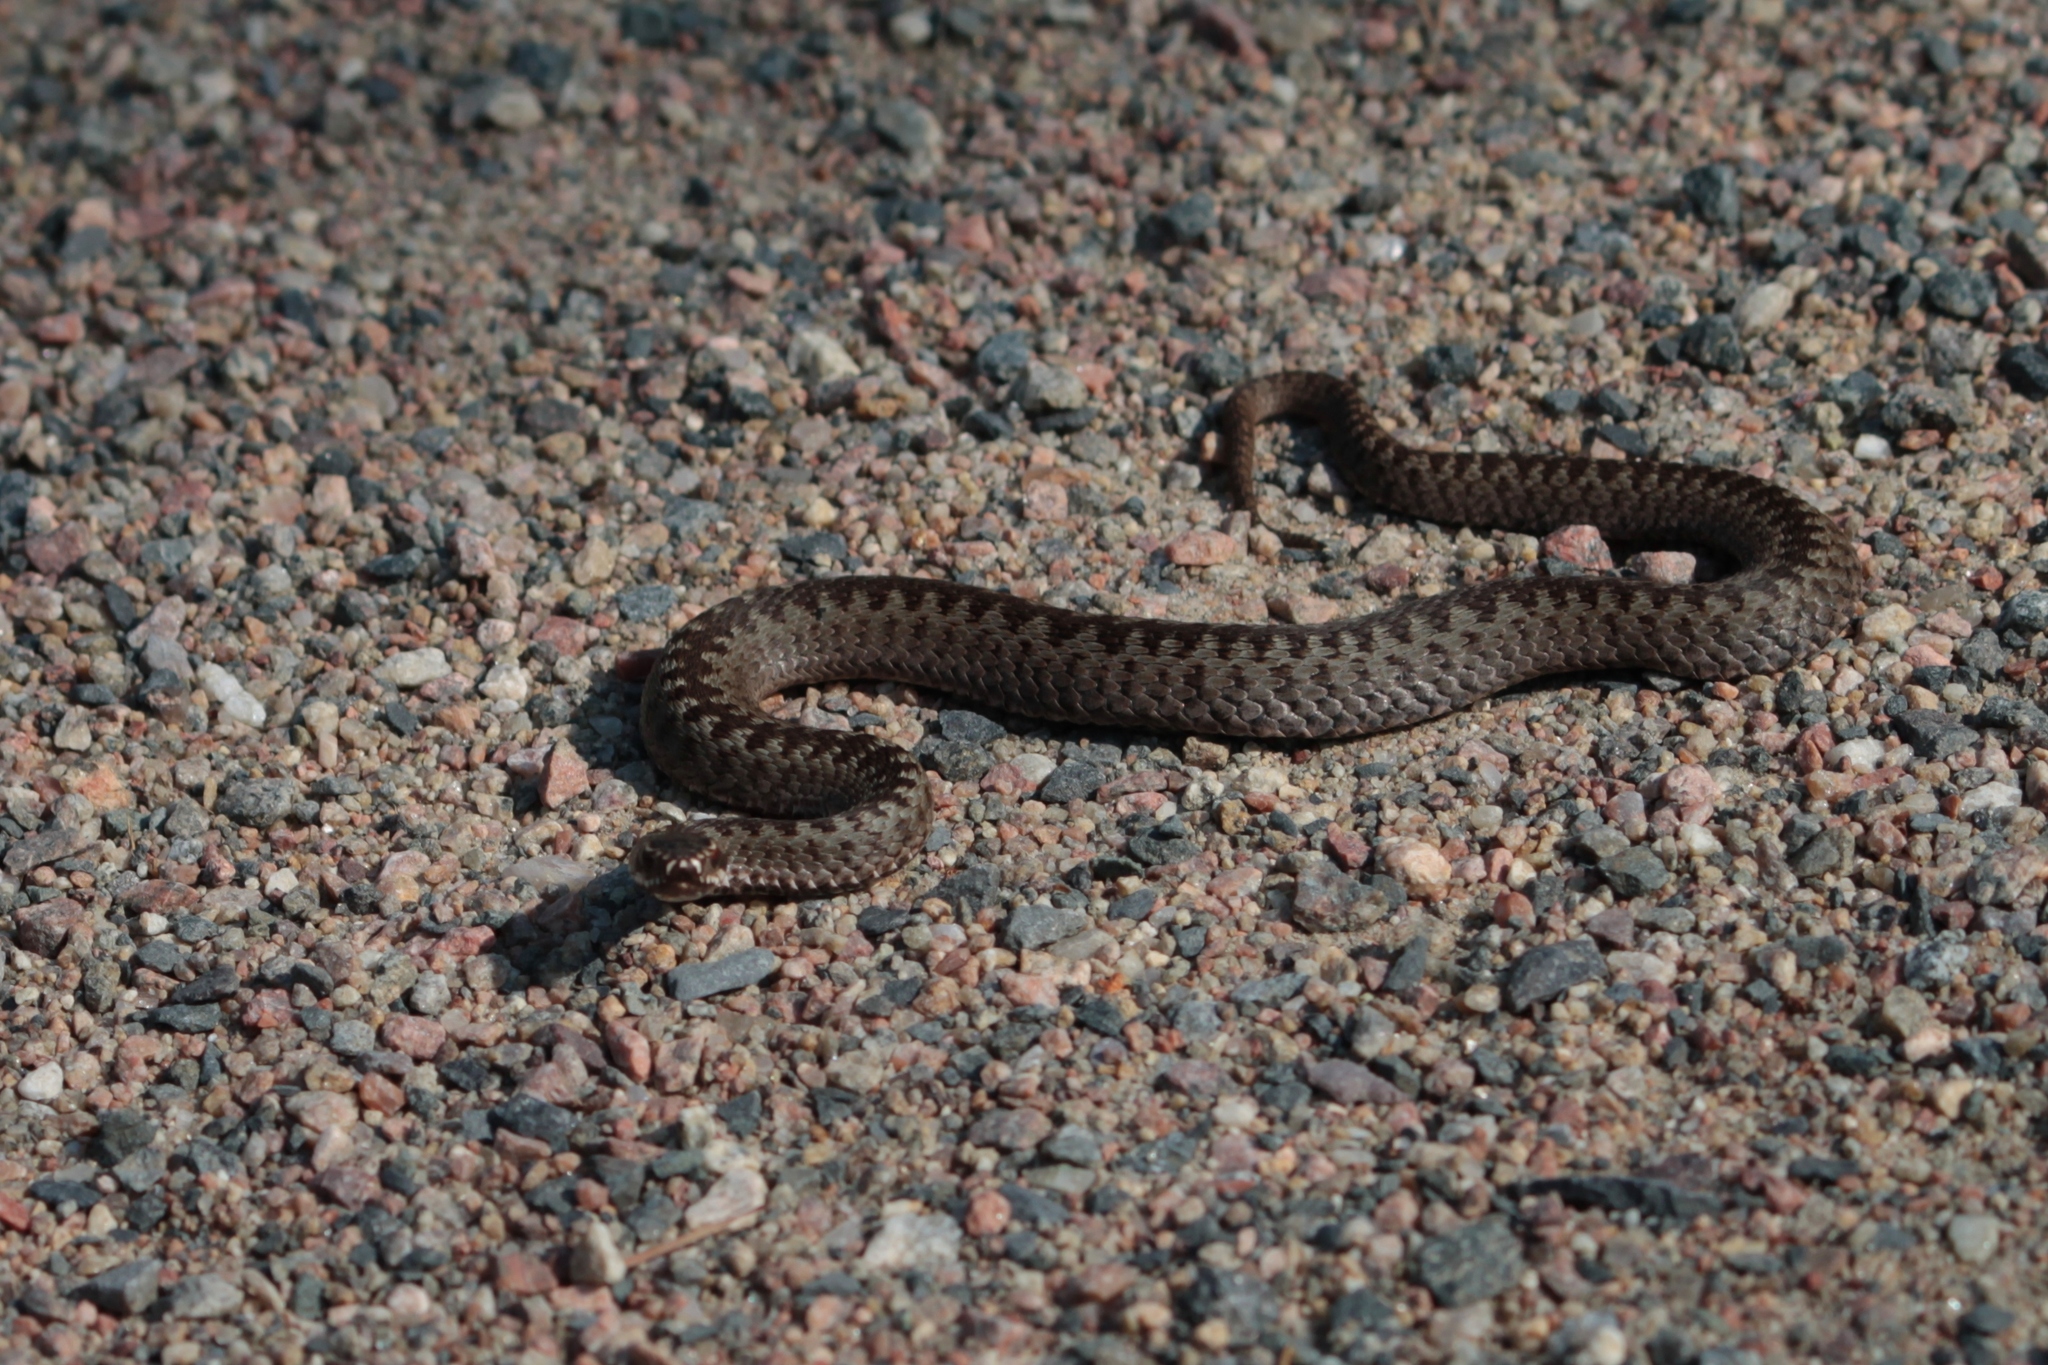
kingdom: Animalia
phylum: Chordata
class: Squamata
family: Viperidae
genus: Vipera
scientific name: Vipera berus
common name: Adder
